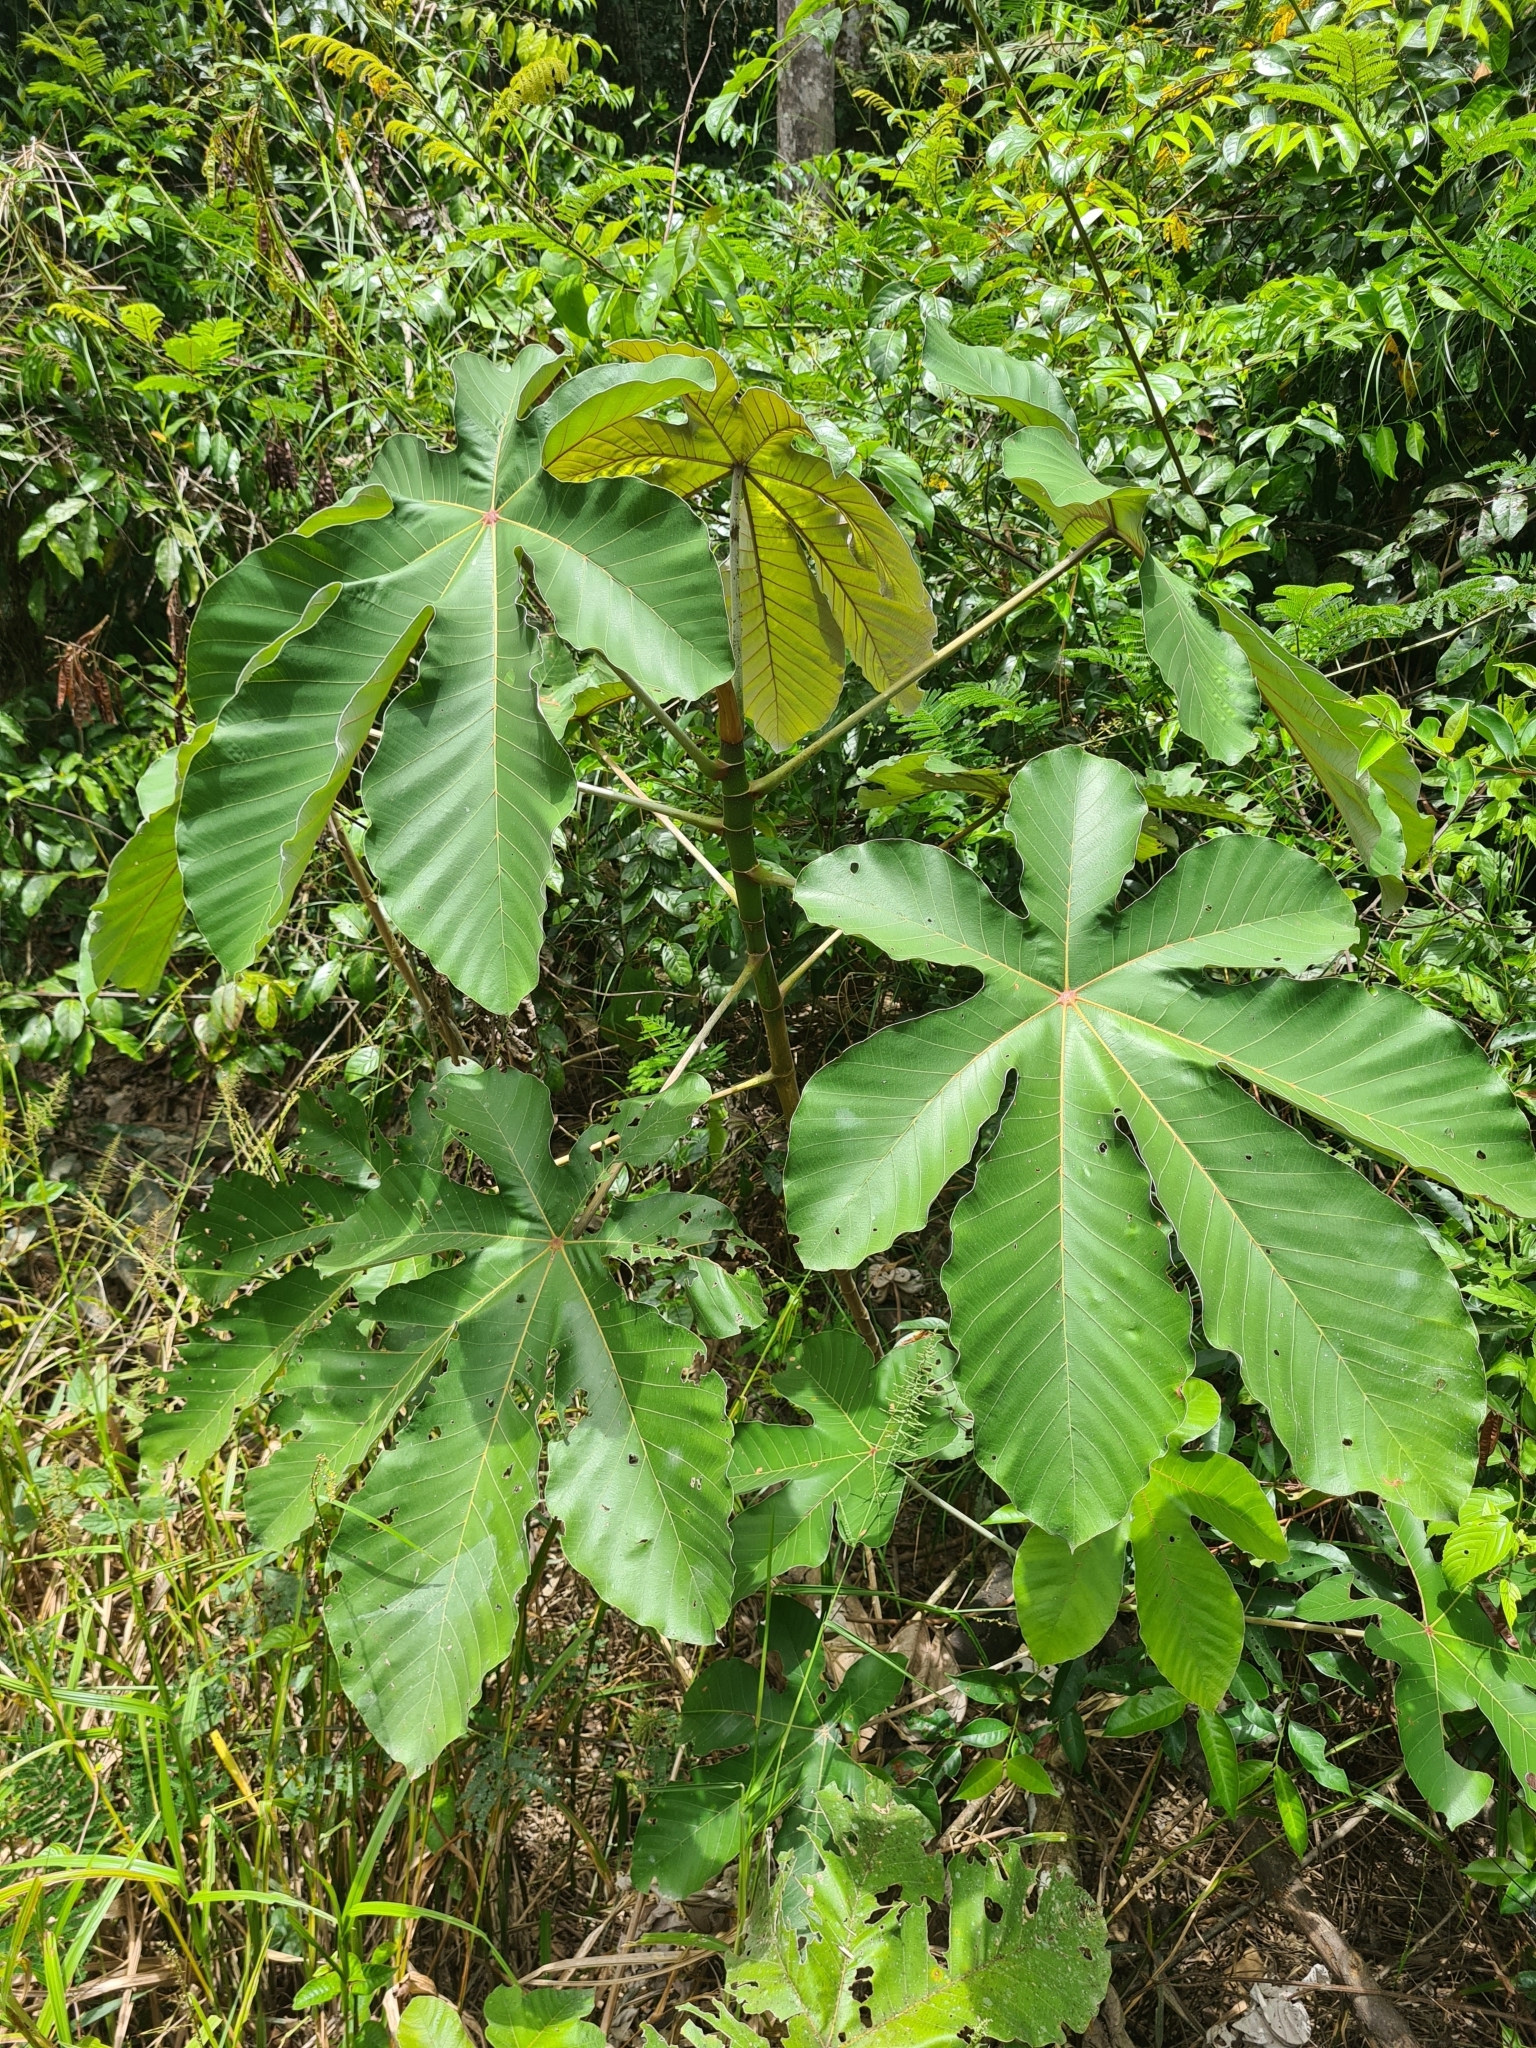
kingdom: Plantae
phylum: Tracheophyta
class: Magnoliopsida
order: Rosales
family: Urticaceae
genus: Cecropia
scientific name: Cecropia obtusa
